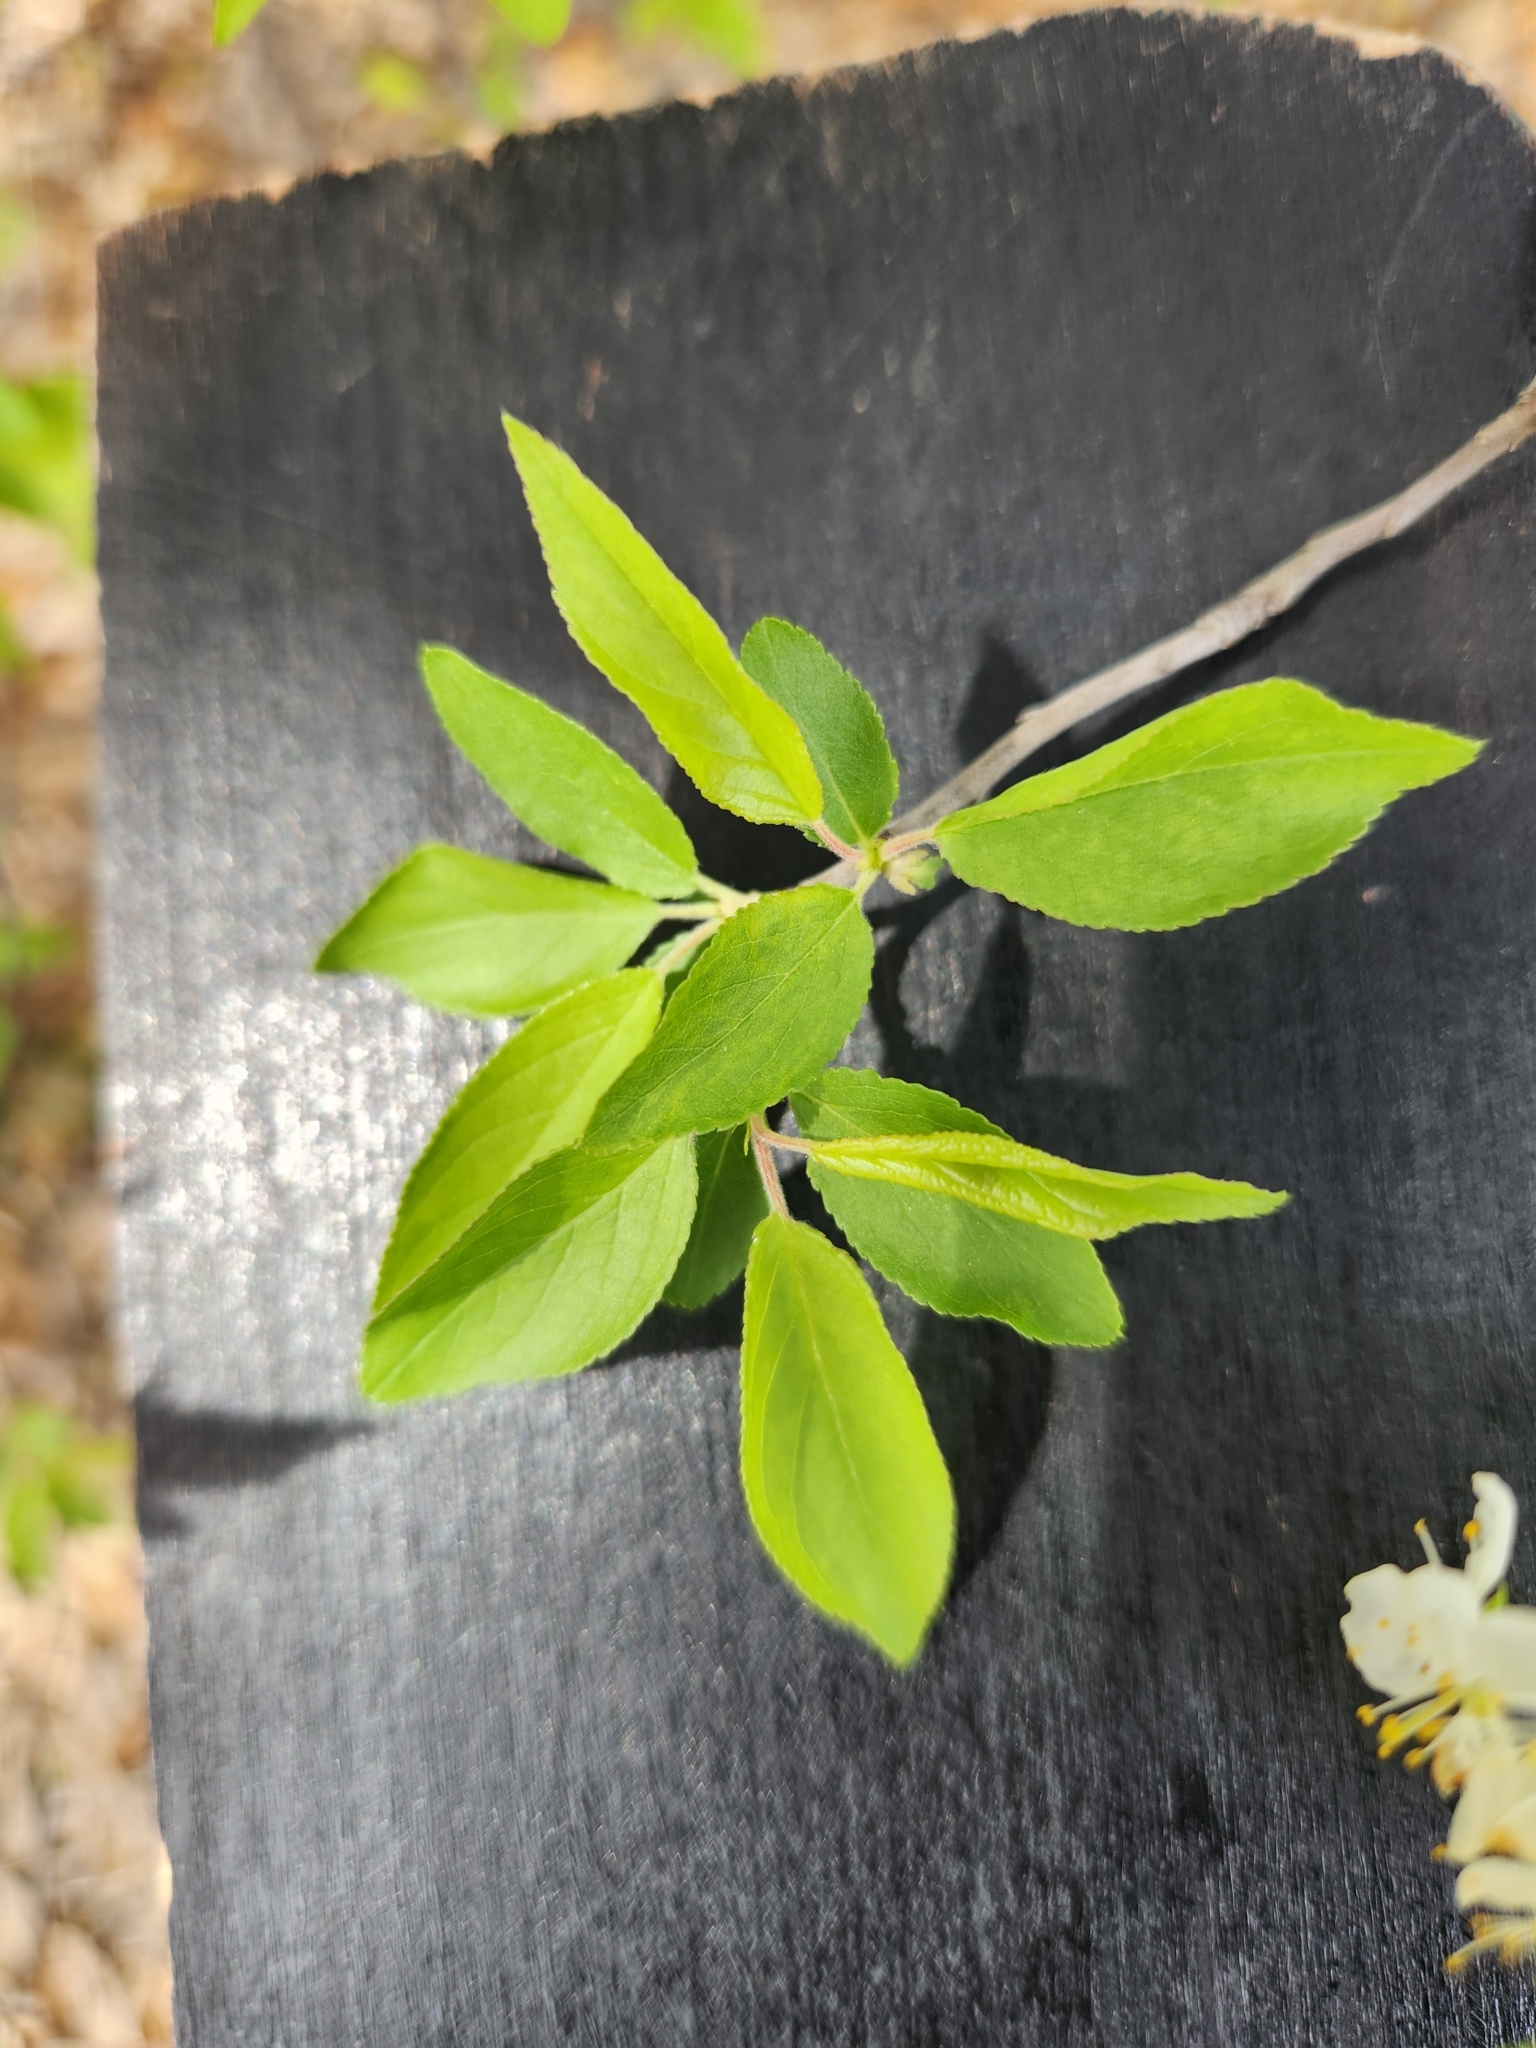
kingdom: Plantae
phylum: Tracheophyta
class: Magnoliopsida
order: Rosales
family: Rosaceae
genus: Prunus
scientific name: Prunus murrayana
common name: Murray plum
